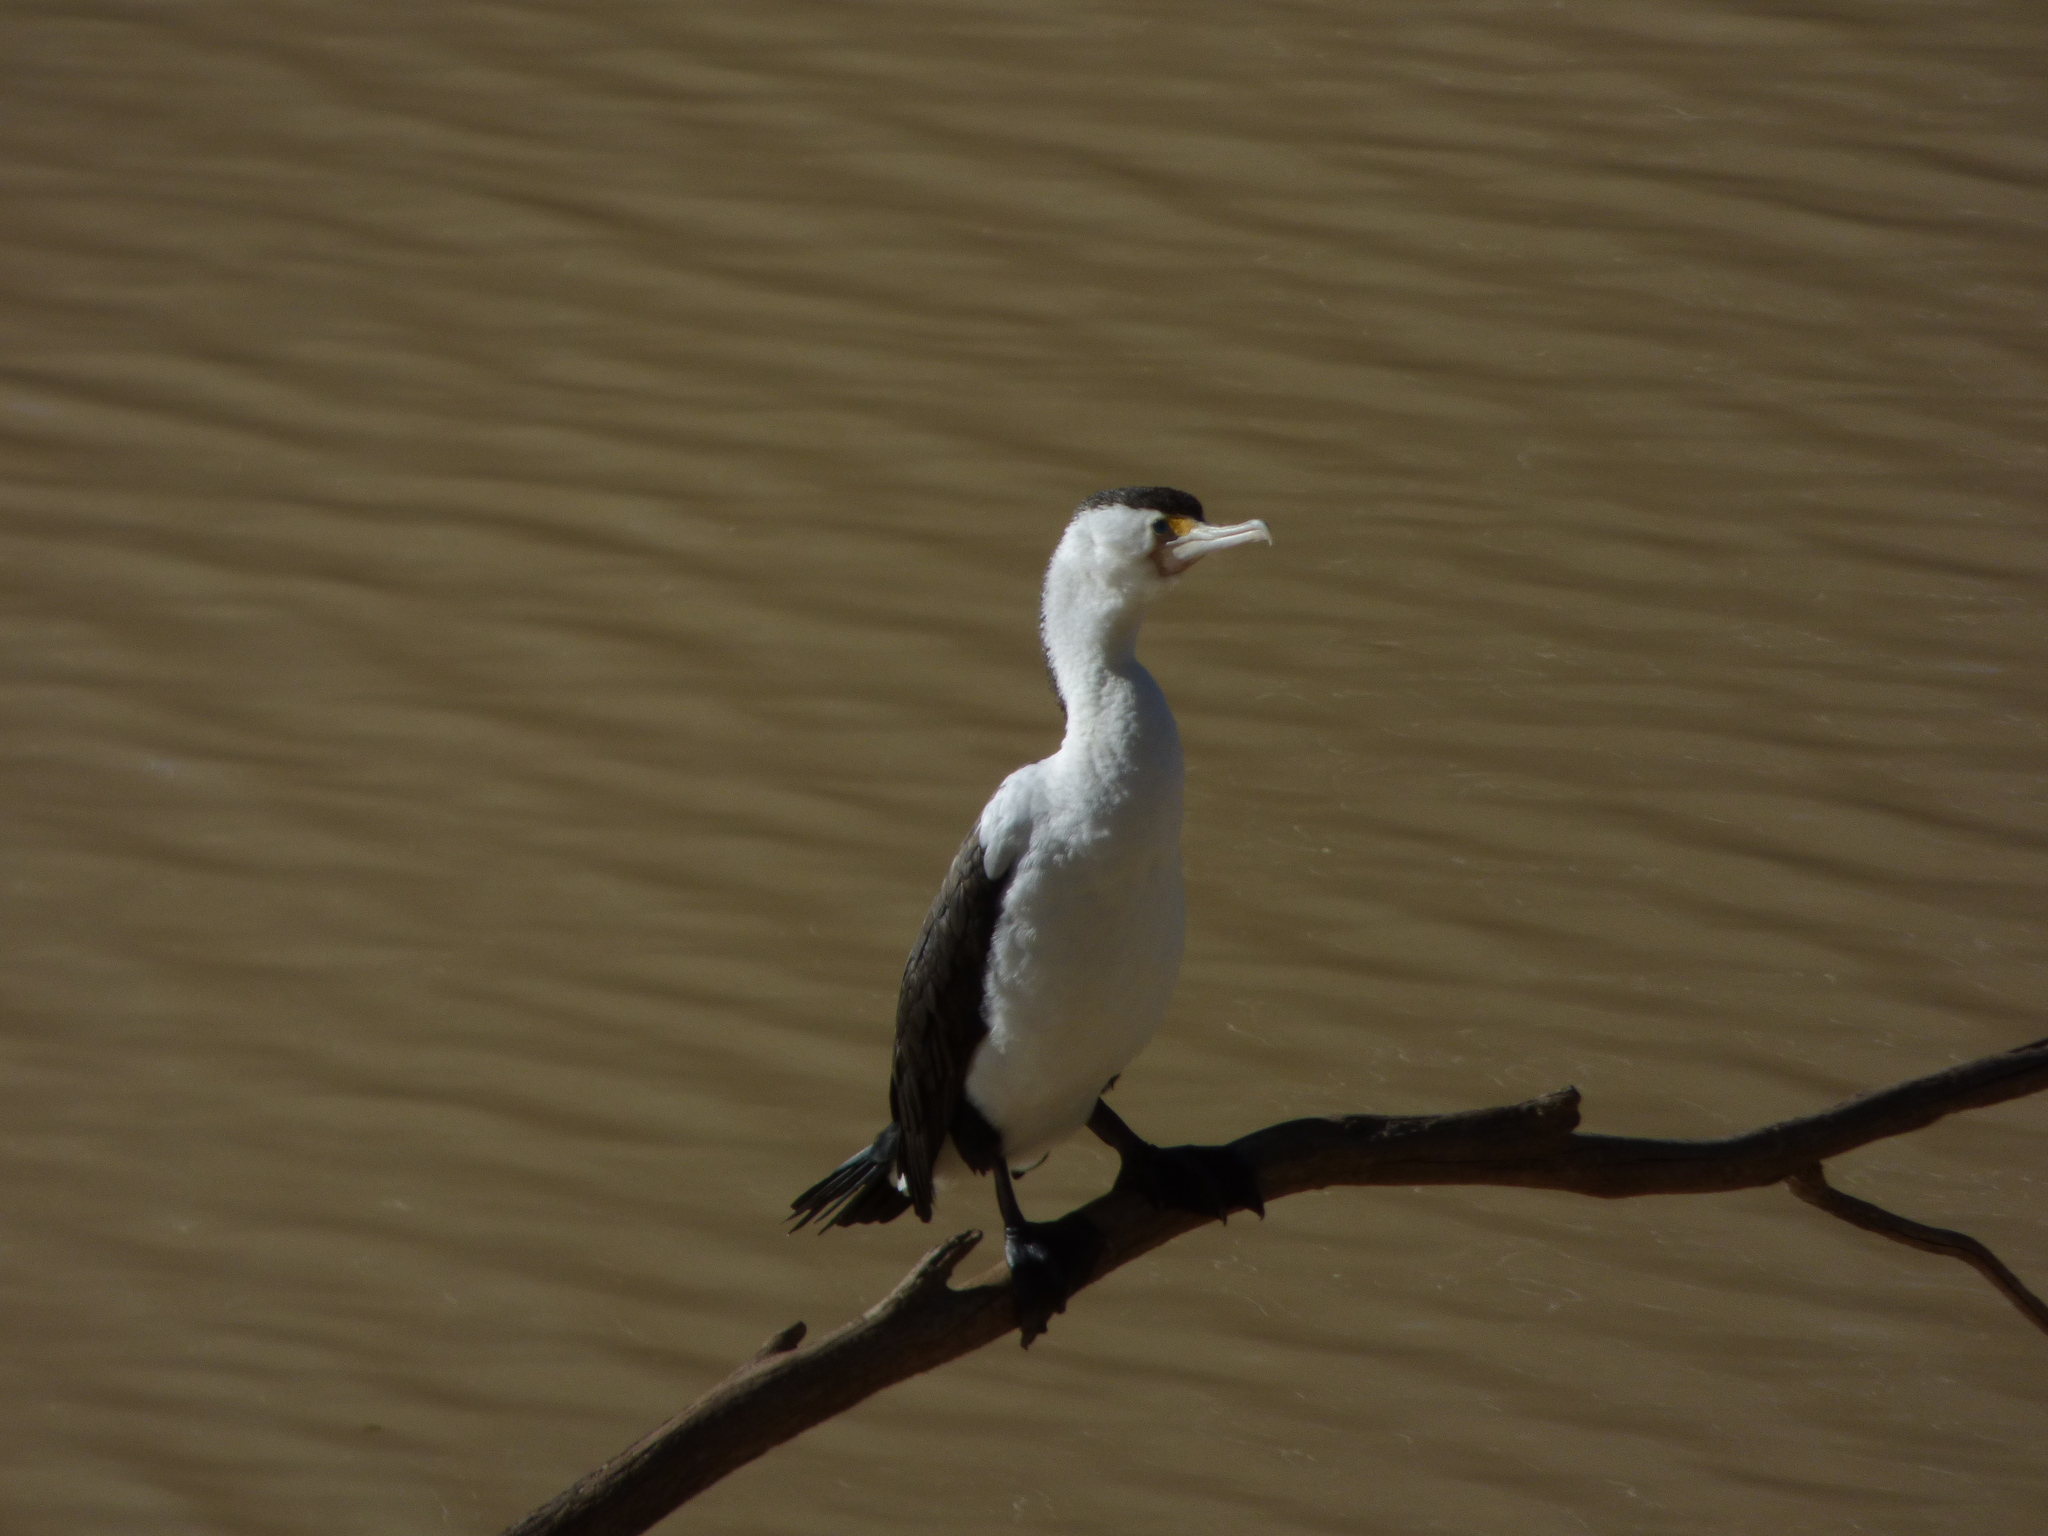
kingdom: Animalia
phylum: Chordata
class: Aves
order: Suliformes
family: Phalacrocoracidae
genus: Phalacrocorax
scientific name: Phalacrocorax varius
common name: Pied cormorant
